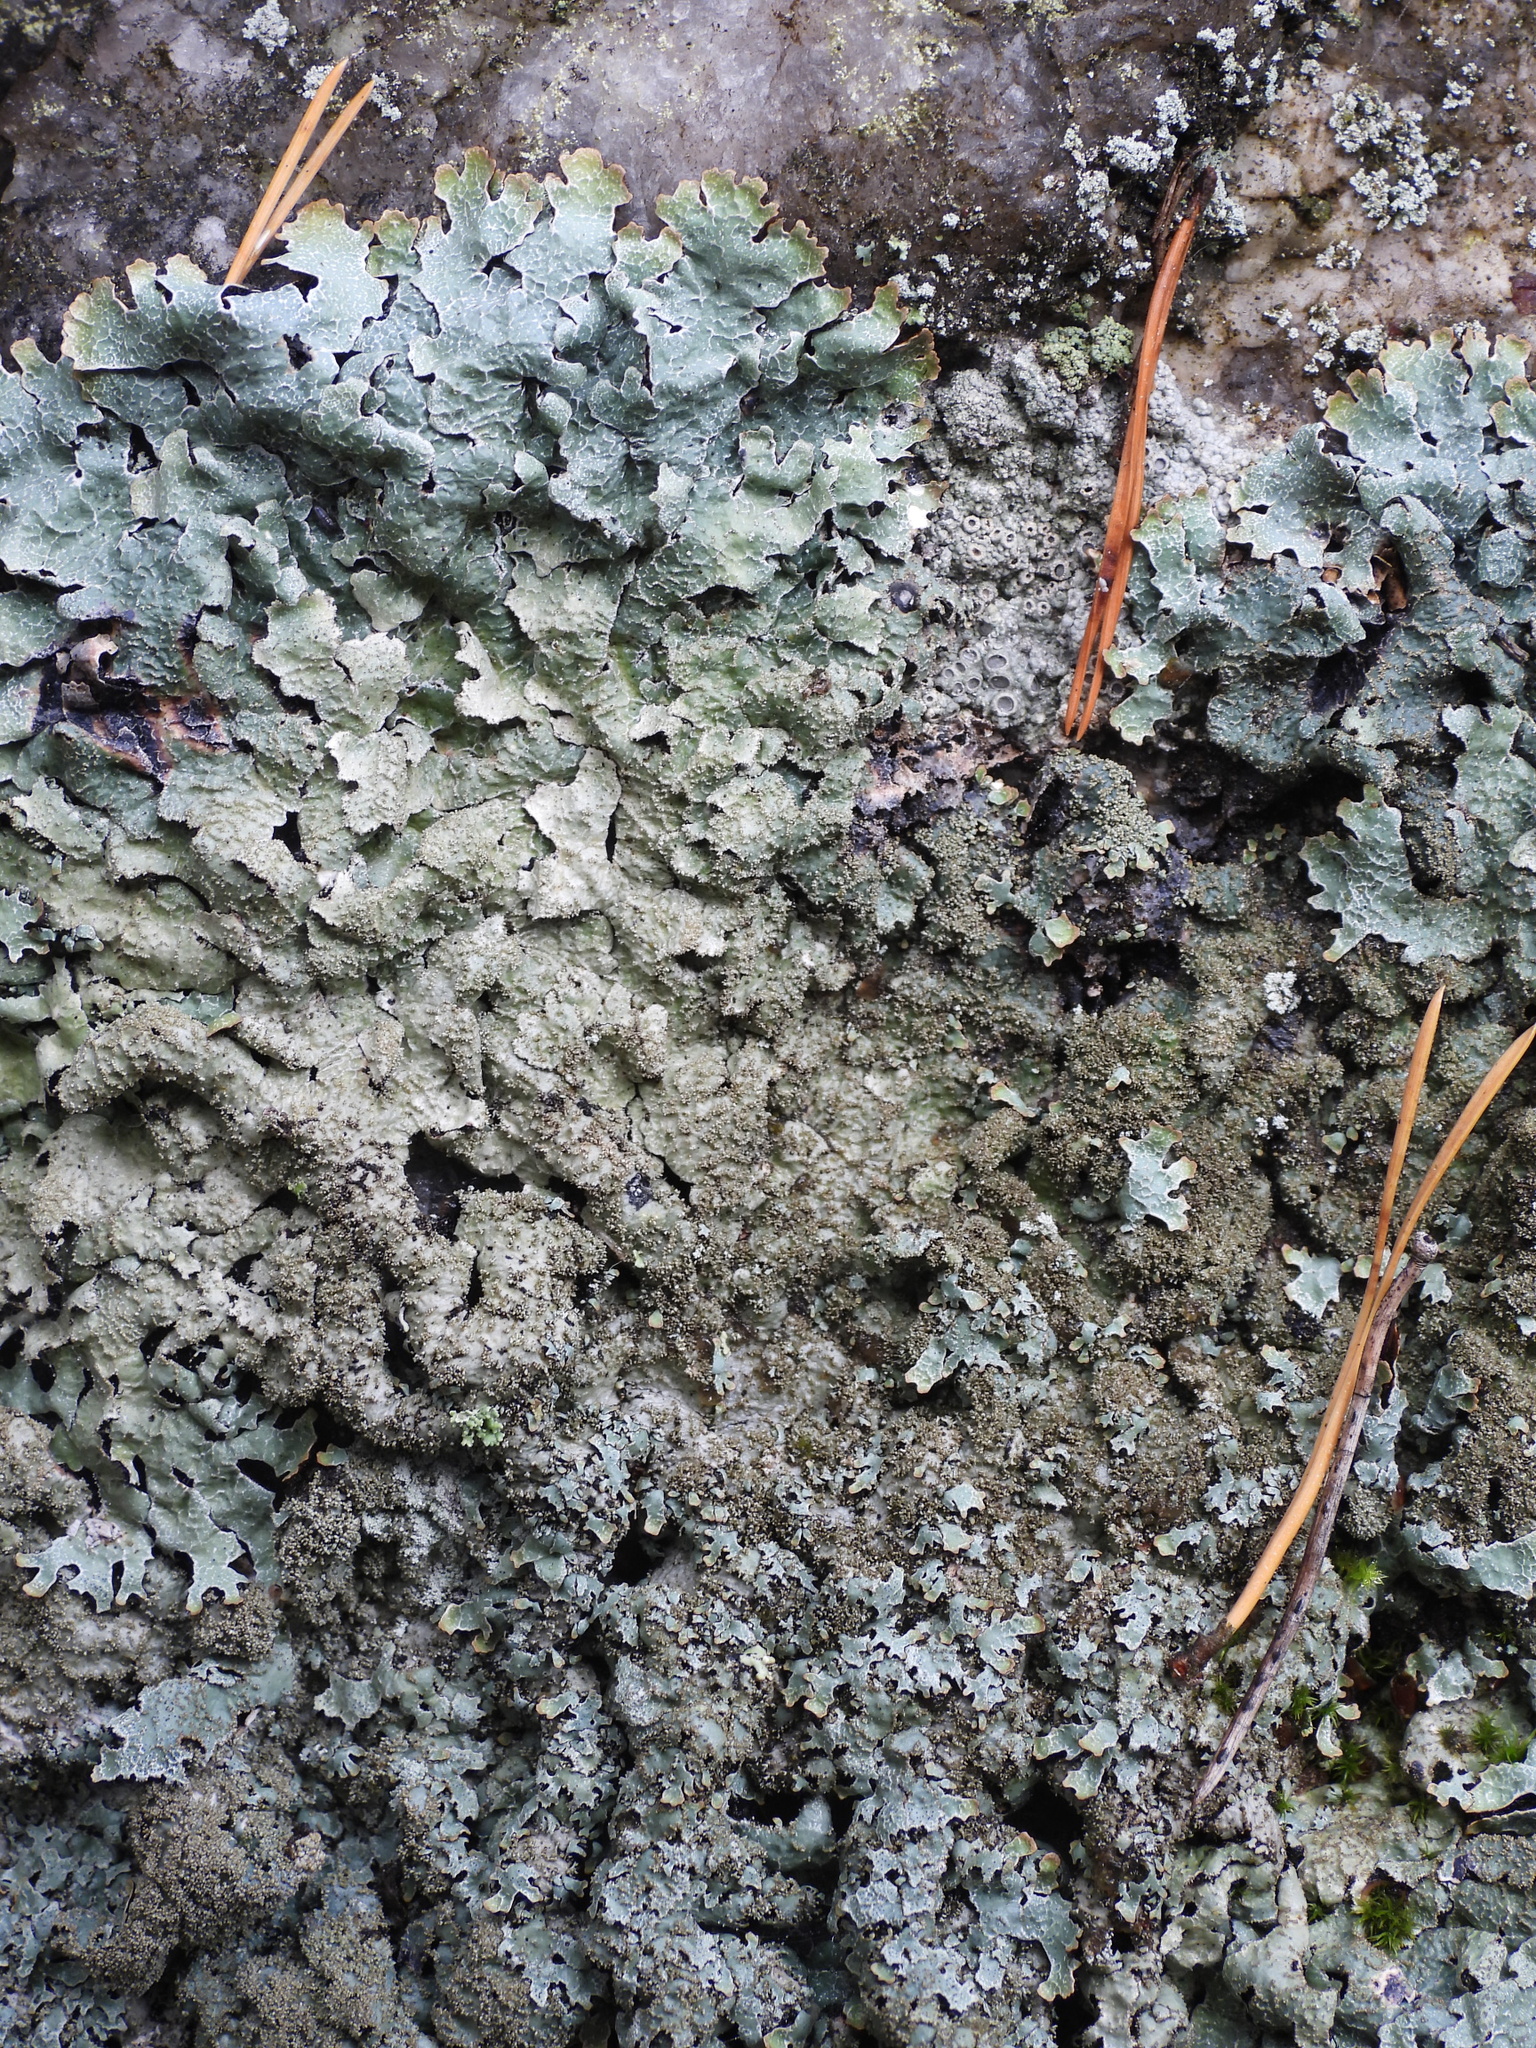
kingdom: Fungi
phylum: Ascomycota
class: Lecanoromycetes
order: Lecanorales
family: Parmeliaceae
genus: Parmelia
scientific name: Parmelia saxatilis
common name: Salted shield lichen
